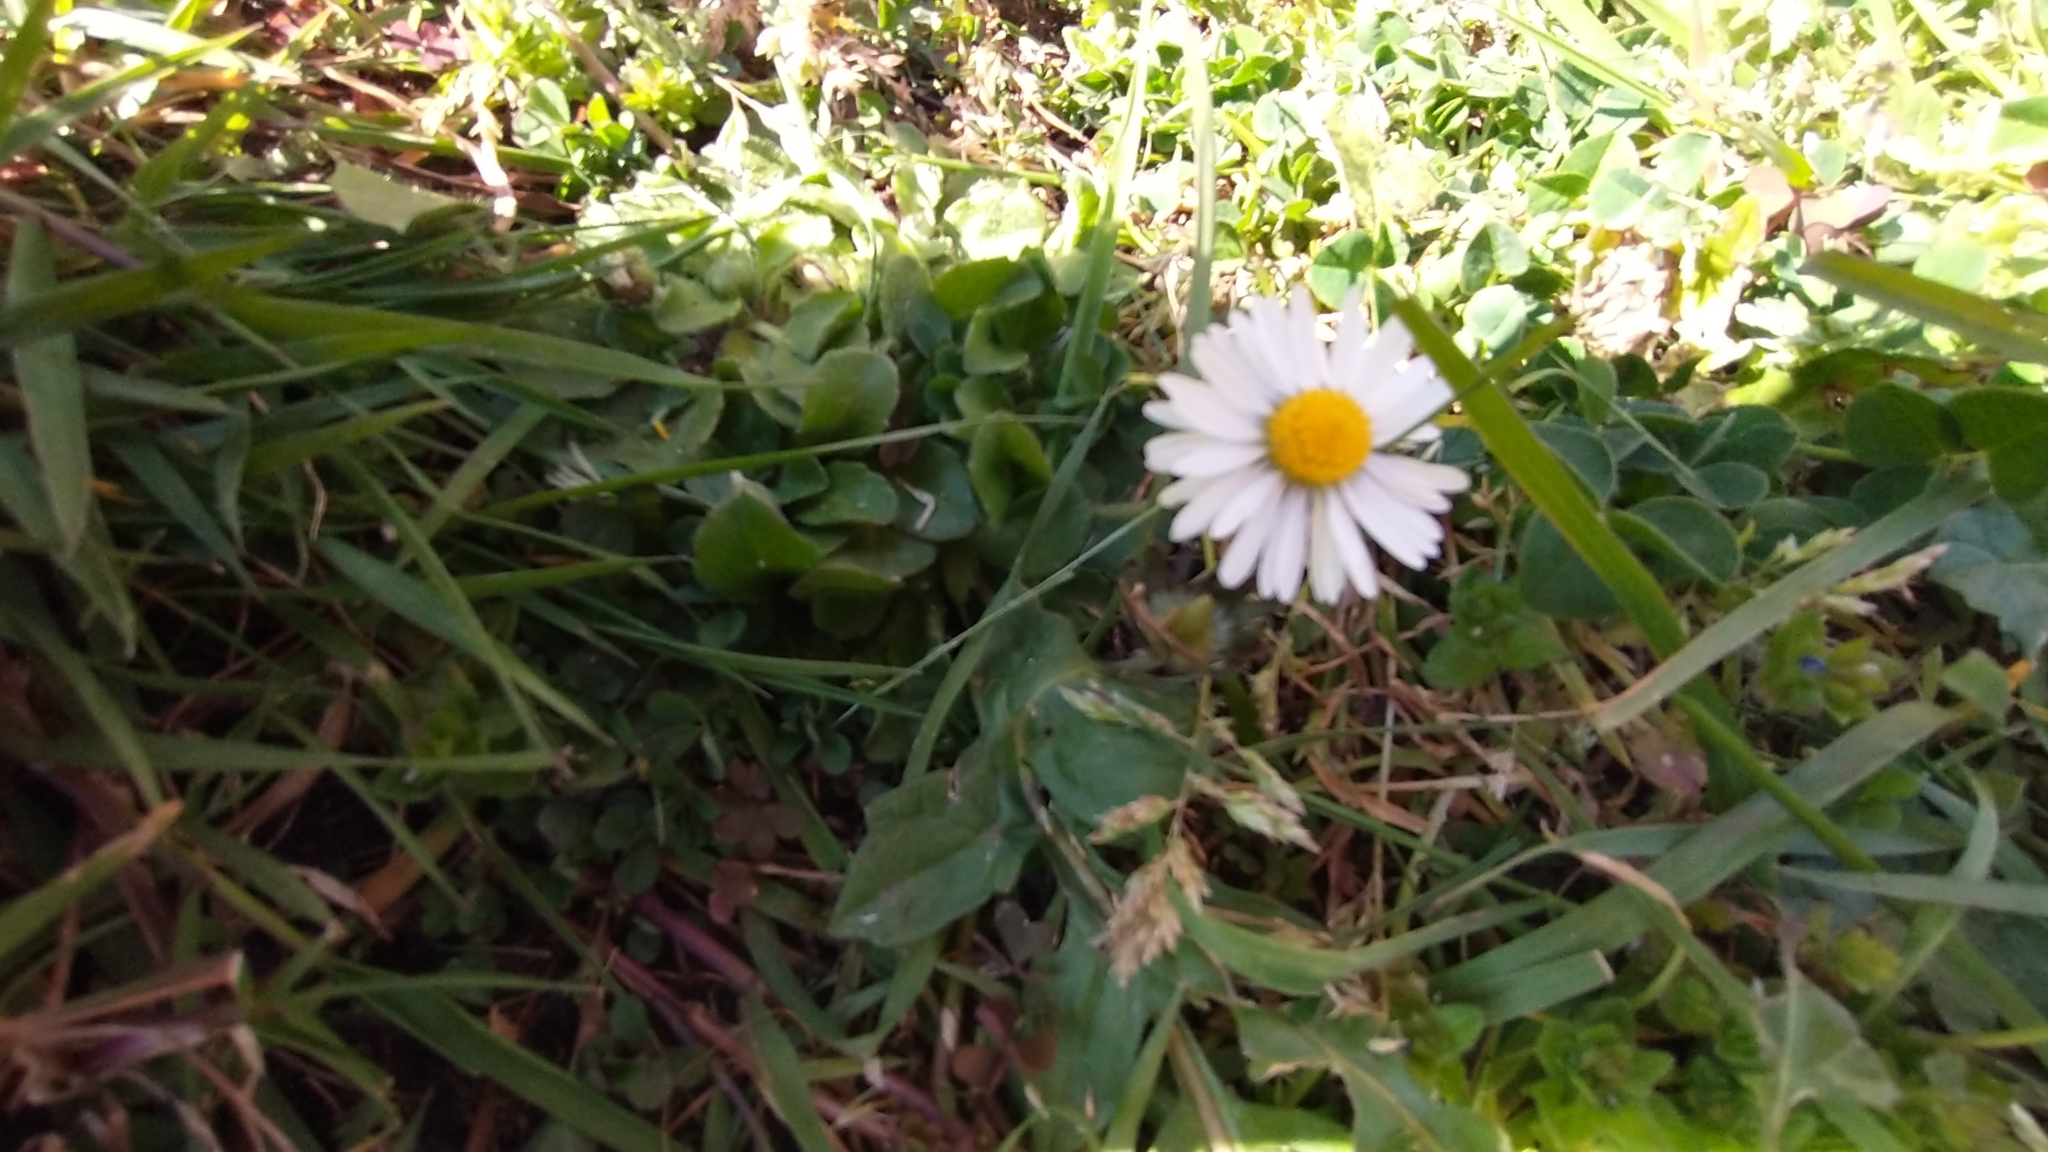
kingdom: Plantae
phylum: Tracheophyta
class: Magnoliopsida
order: Asterales
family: Asteraceae
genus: Bellis
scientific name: Bellis perennis
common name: Lawndaisy
